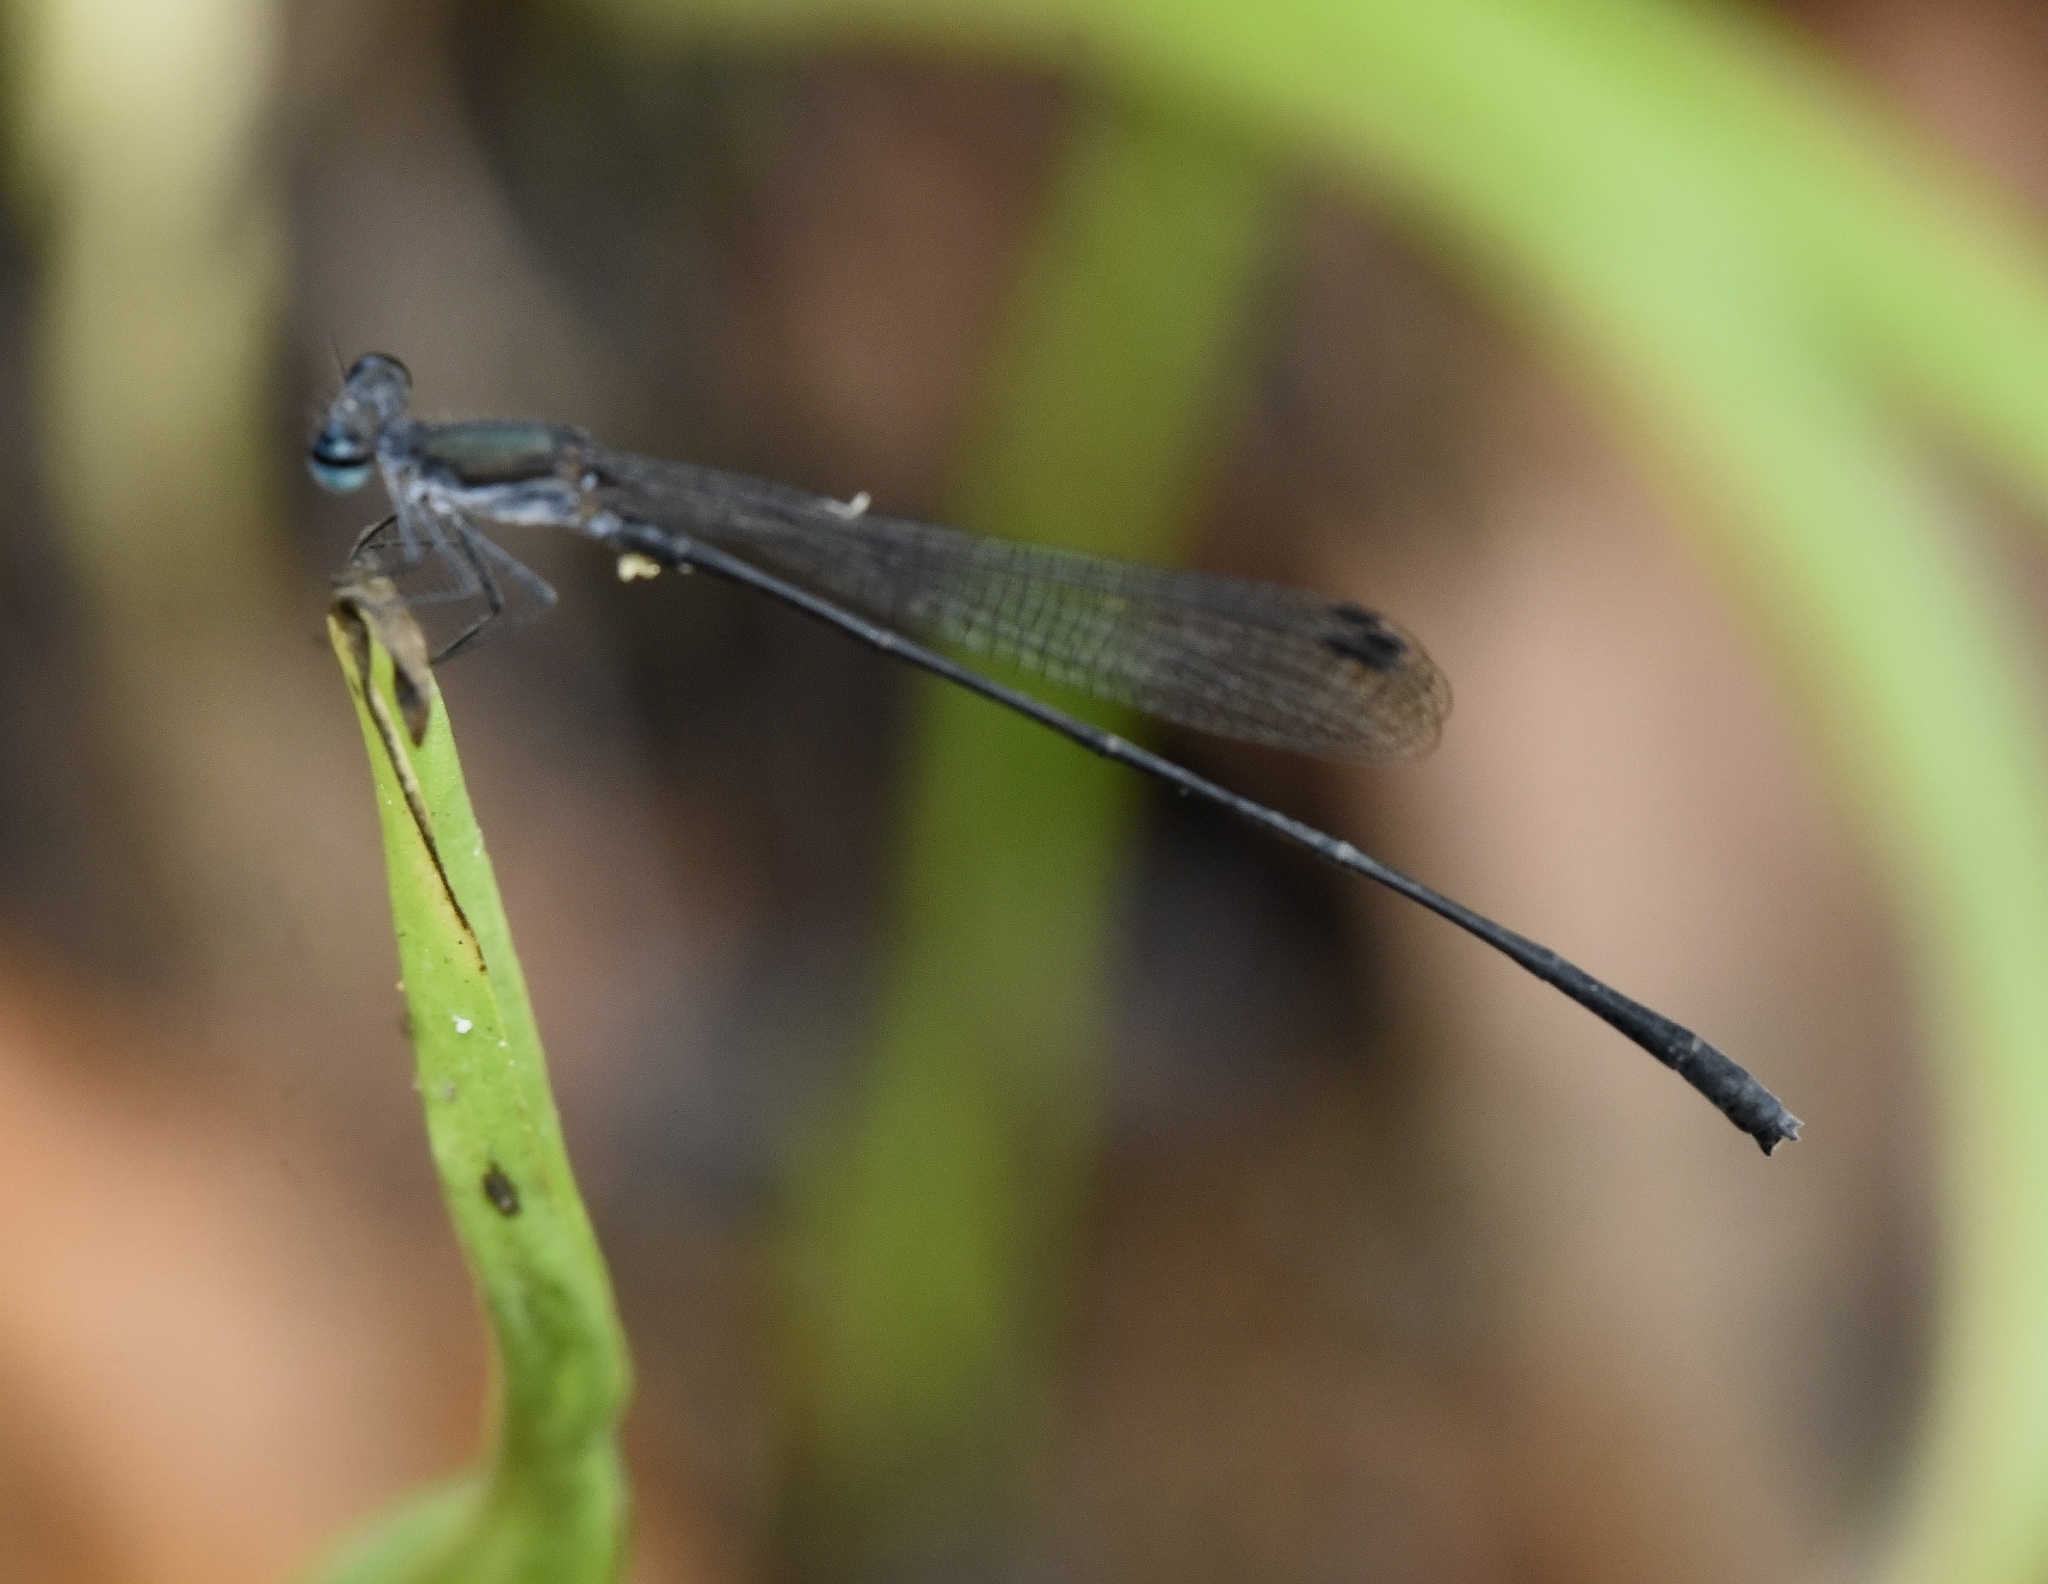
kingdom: Animalia
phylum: Arthropoda
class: Insecta
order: Odonata
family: Platycnemididae
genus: Elattoneura
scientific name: Elattoneura tetrica
